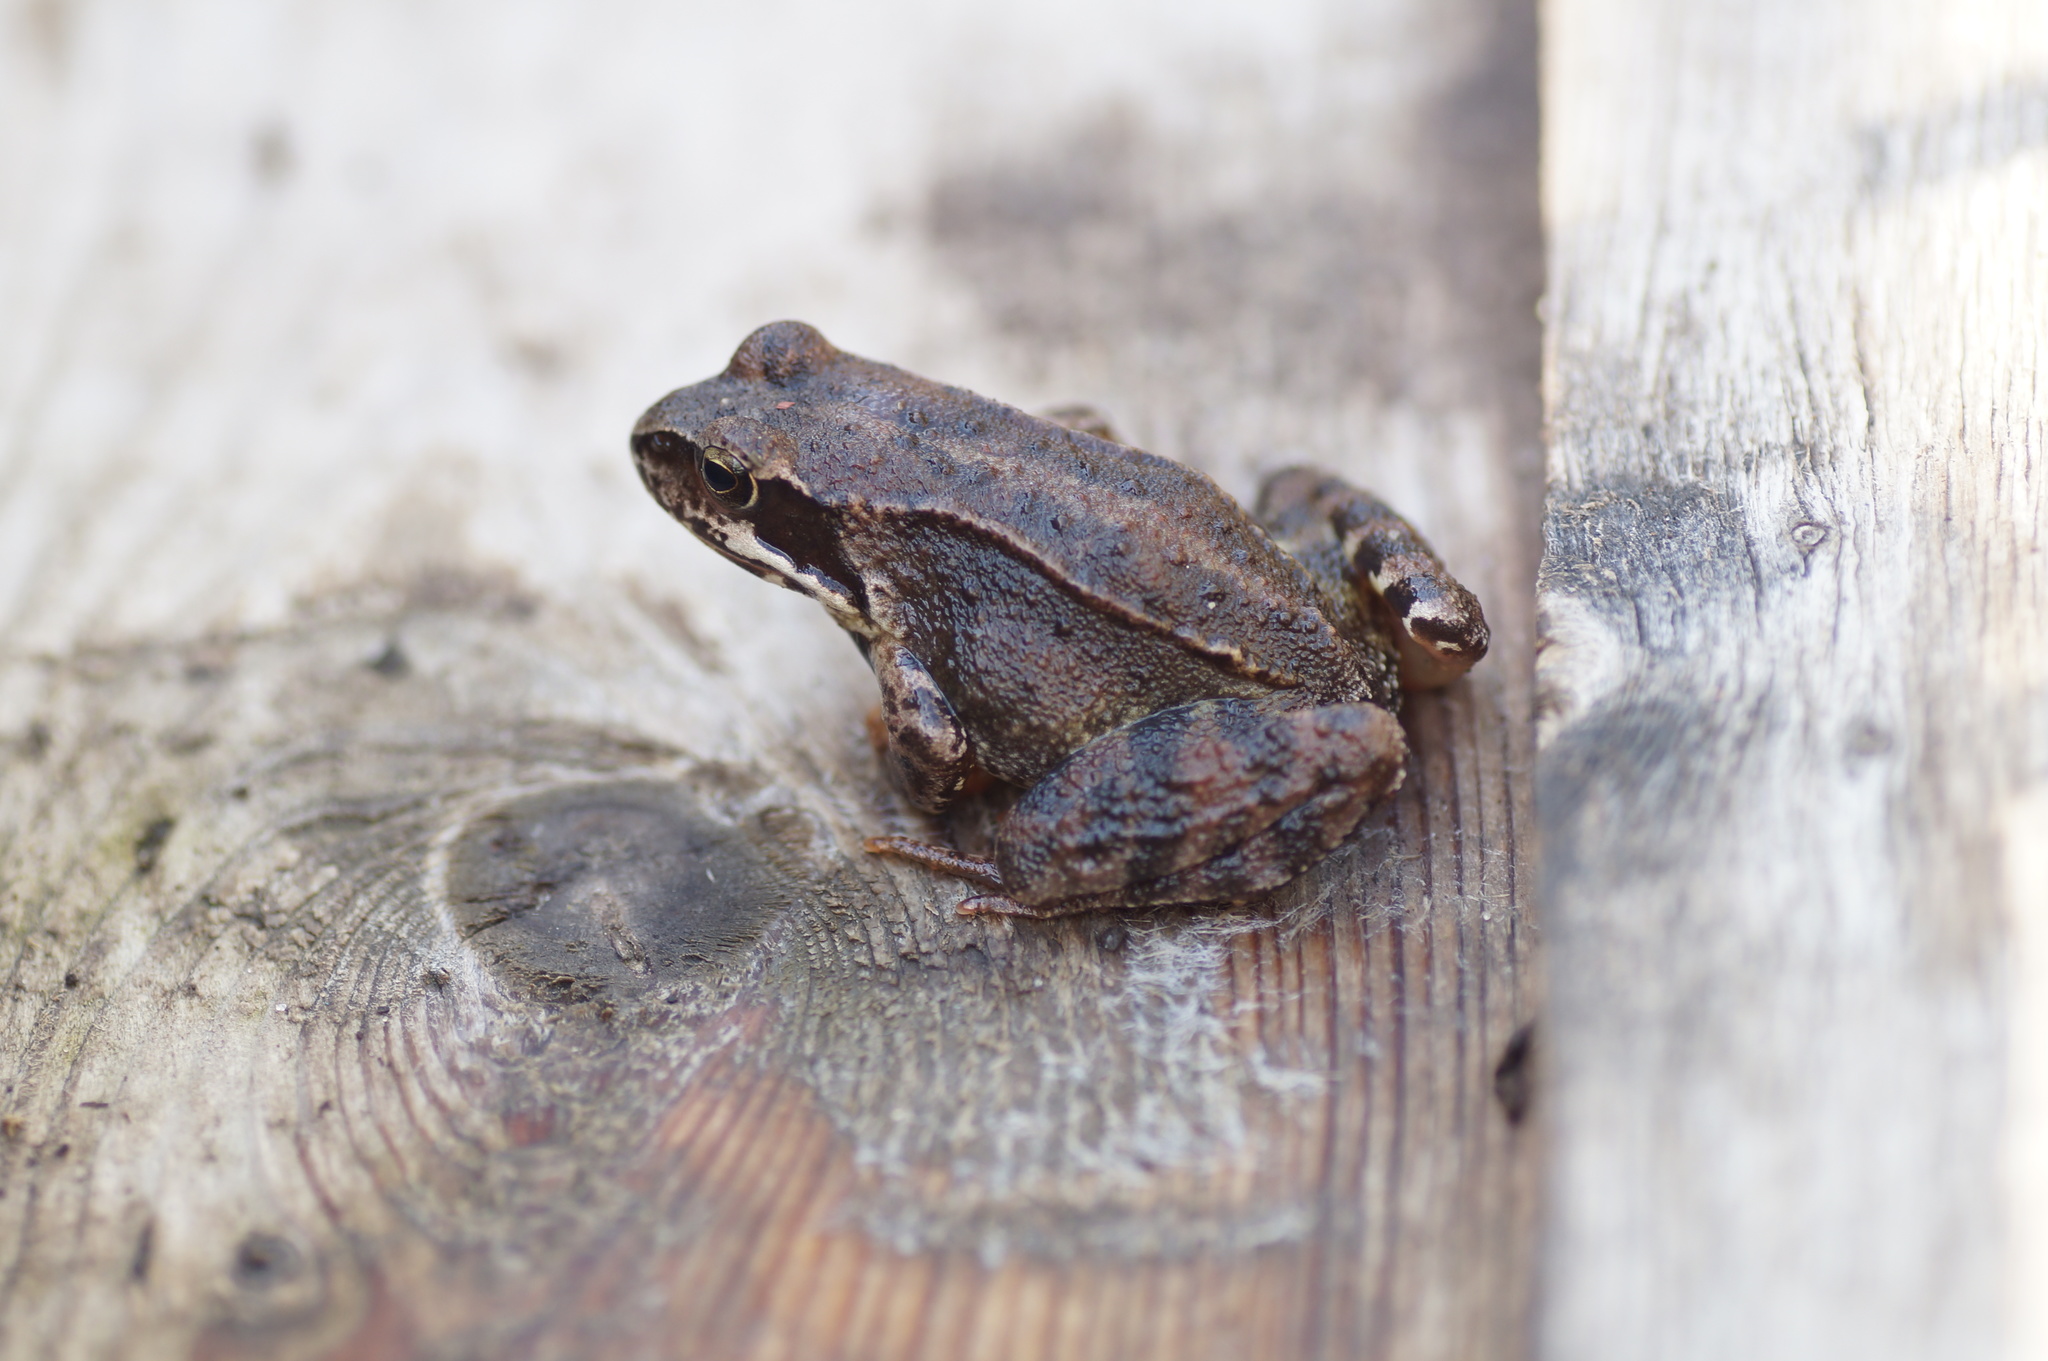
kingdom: Animalia
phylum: Chordata
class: Amphibia
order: Anura
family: Ranidae
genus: Rana
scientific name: Rana temporaria
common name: Common frog
